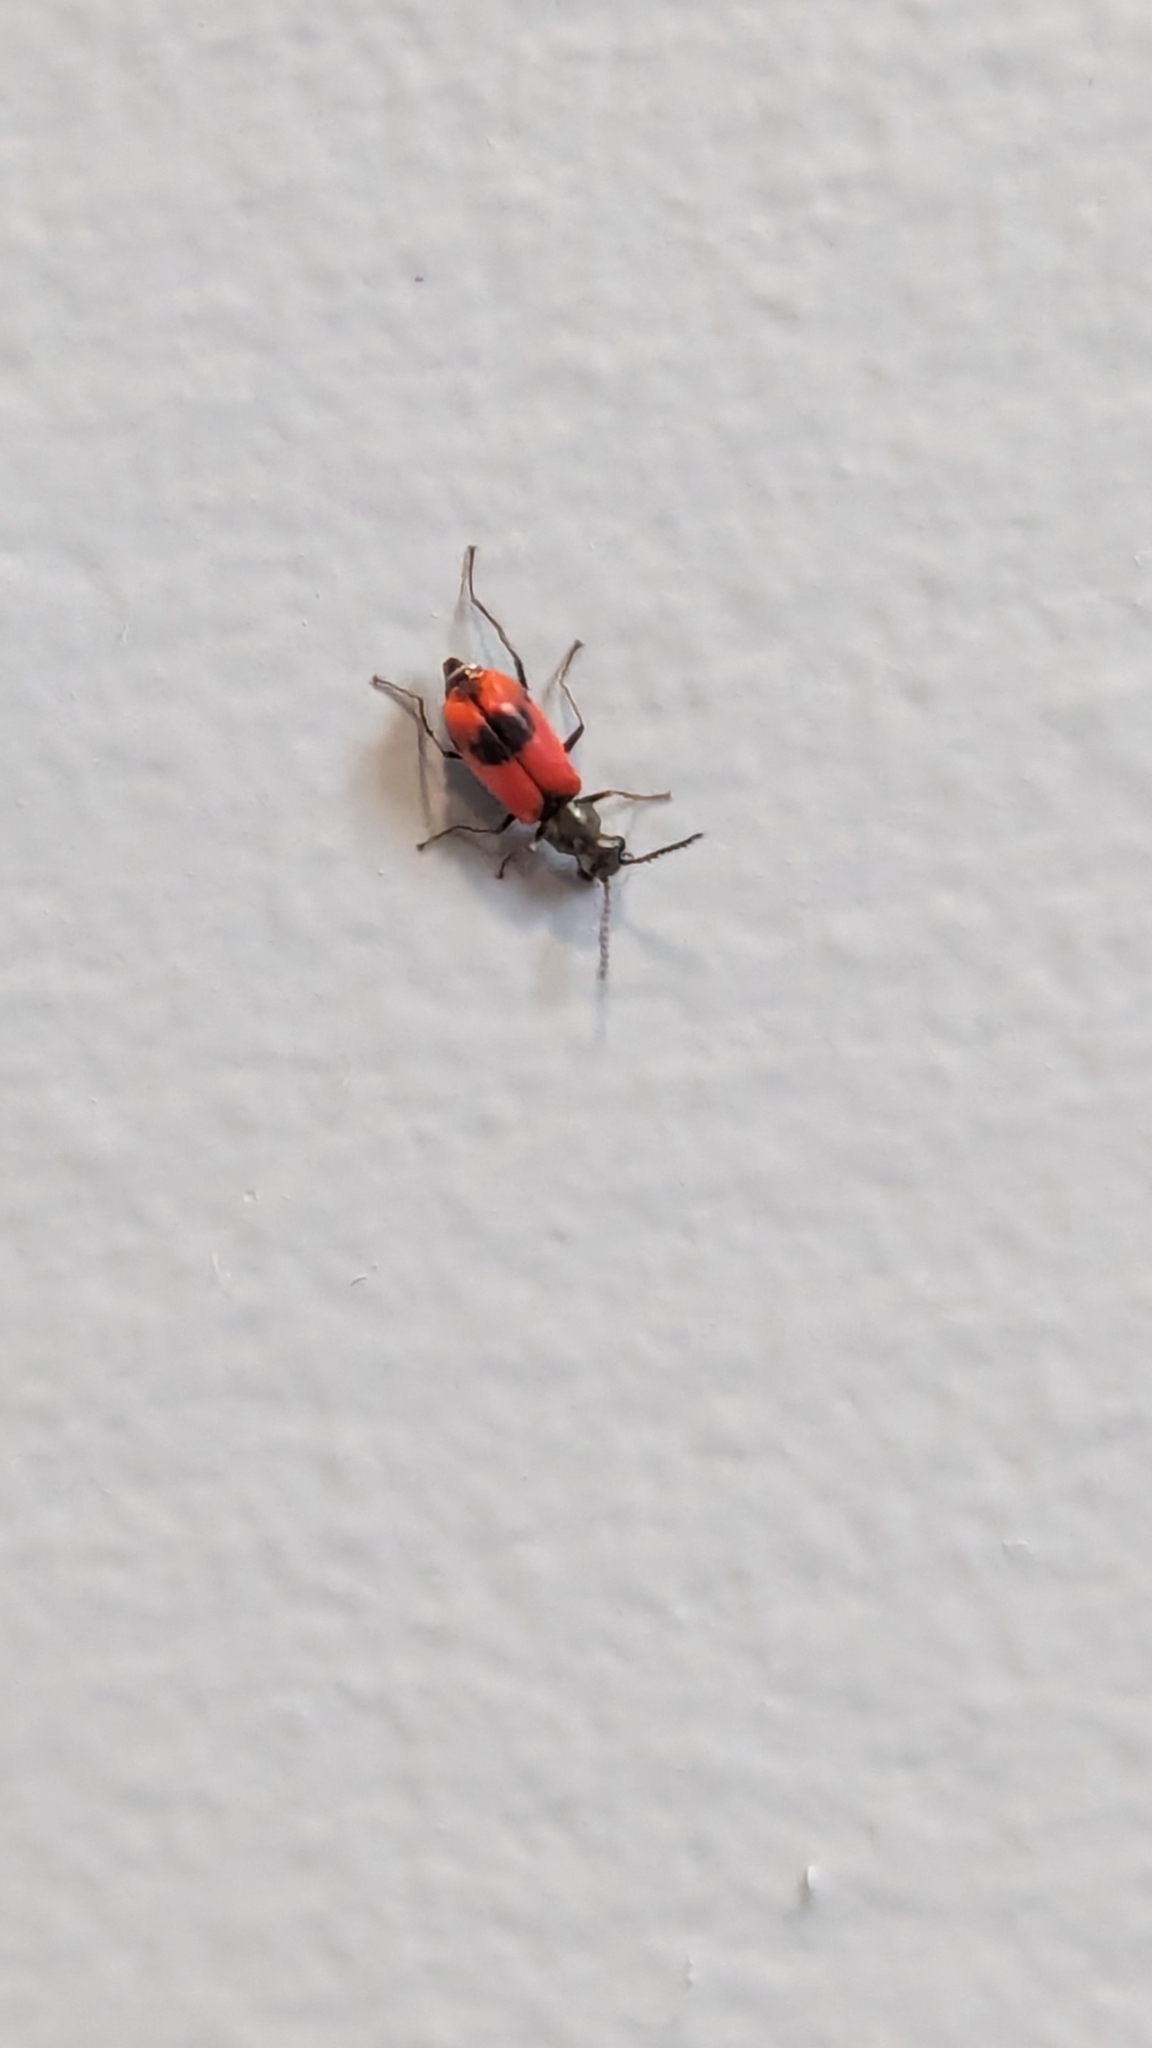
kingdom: Animalia
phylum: Arthropoda
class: Insecta
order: Coleoptera
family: Melyridae
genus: Anthocomus
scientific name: Anthocomus equestris
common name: Black-banded soft-winged flower beetle
